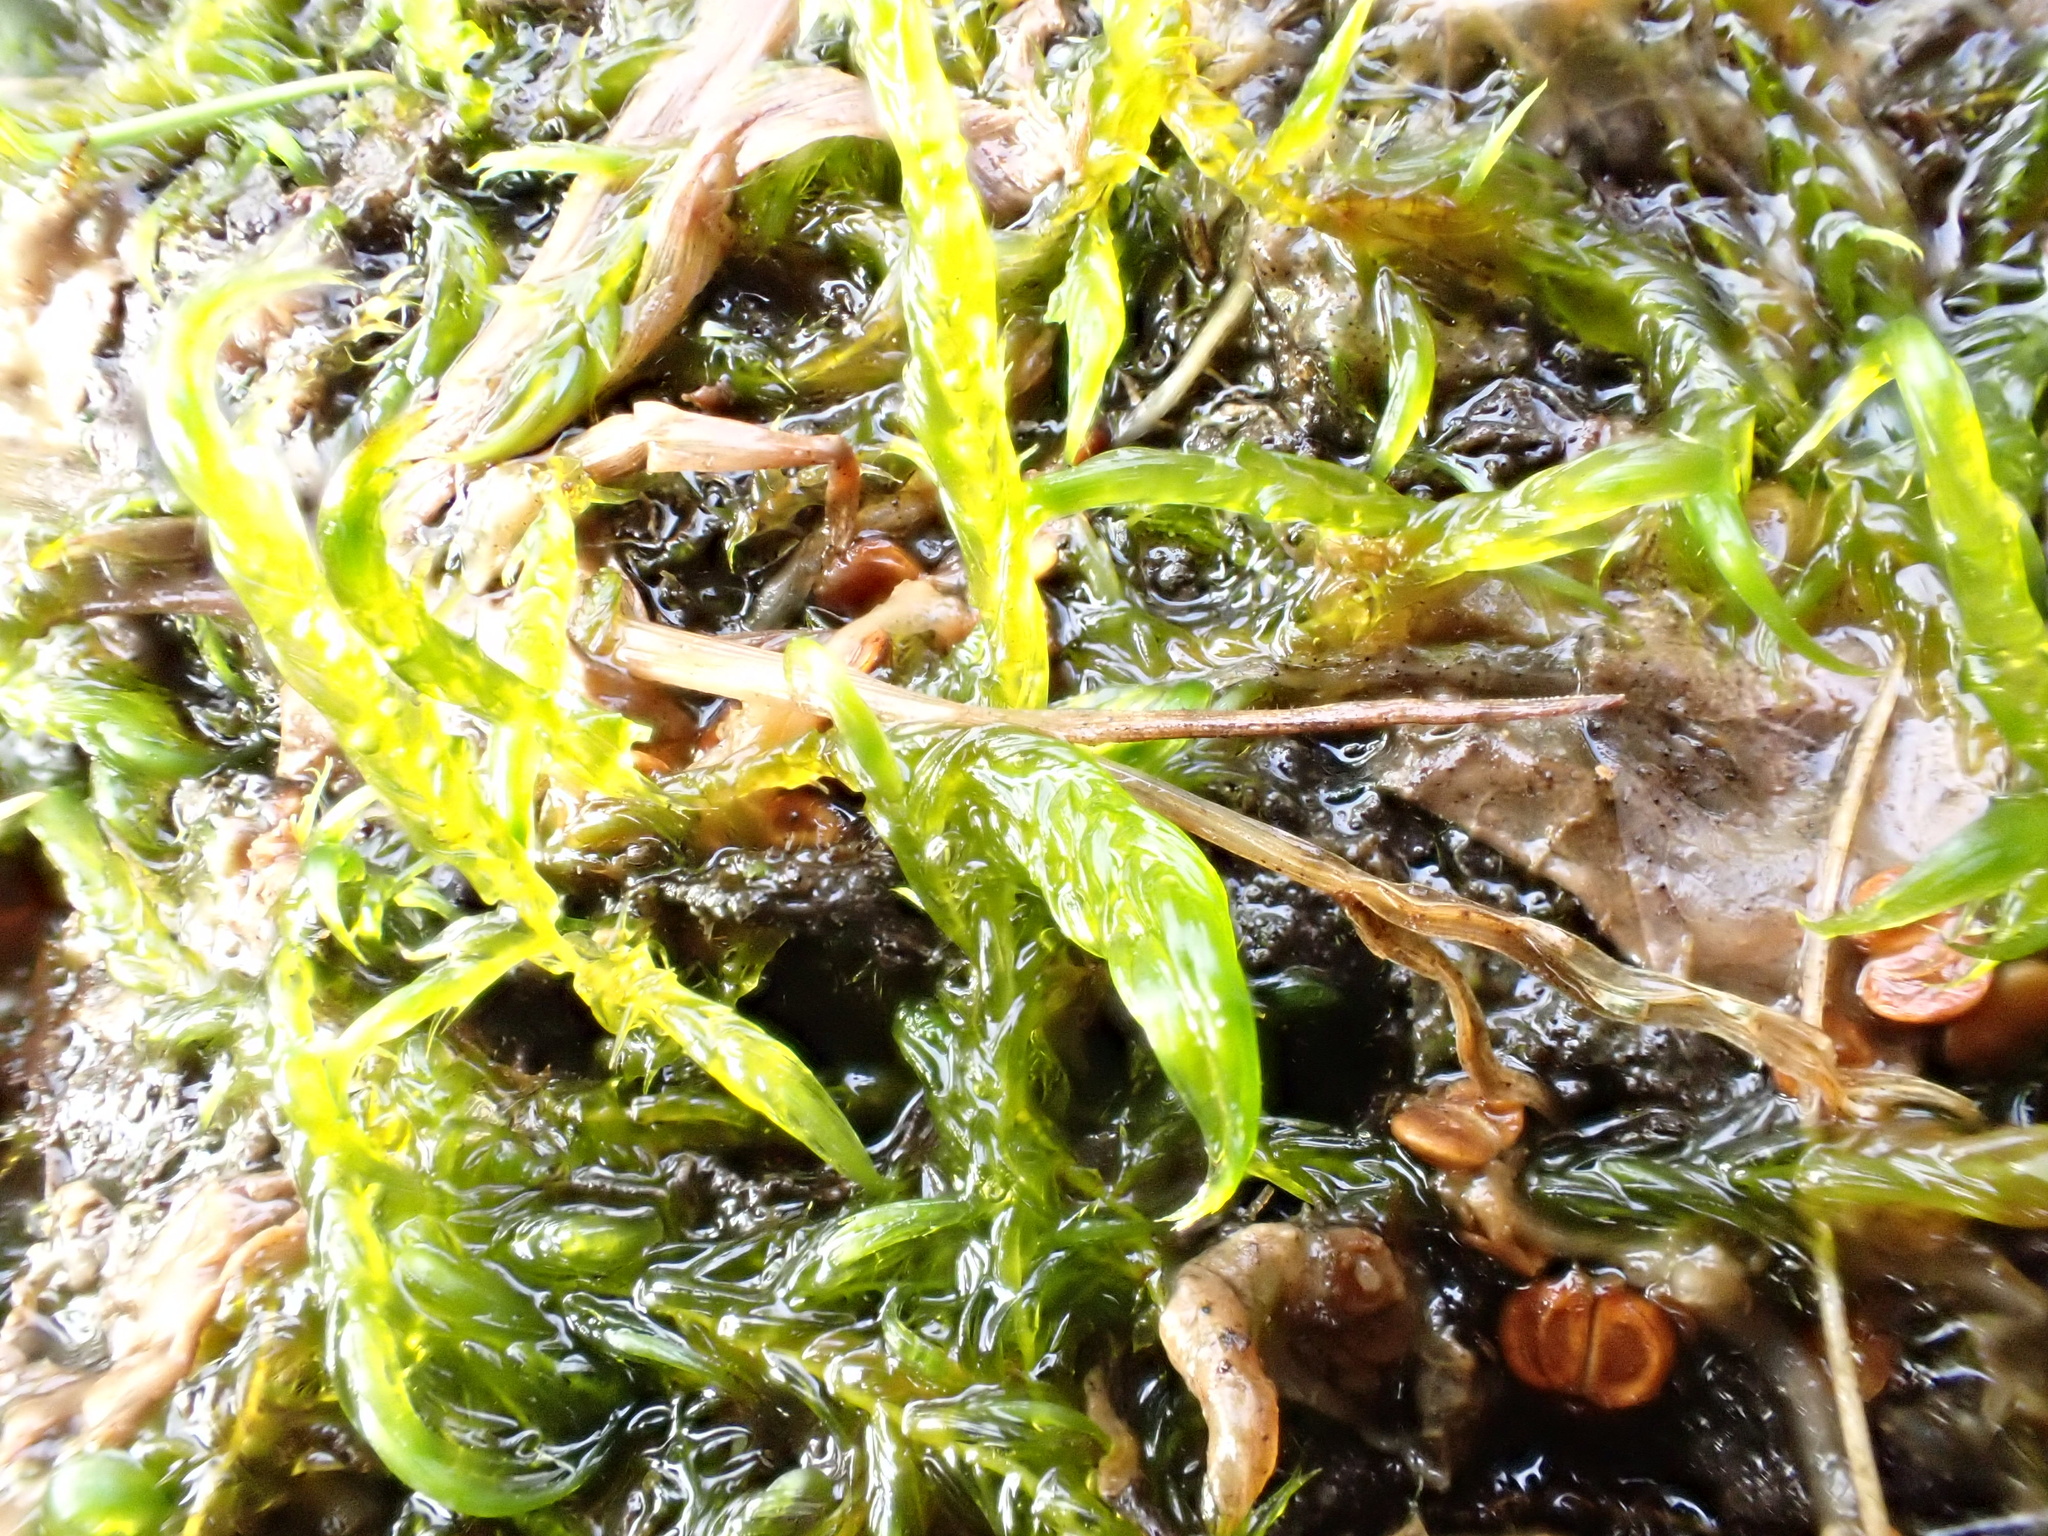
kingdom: Plantae
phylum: Bryophyta
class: Bryopsida
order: Hypnales
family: Calliergonaceae
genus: Warnstorfia
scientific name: Warnstorfia fluitans
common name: Floating hook moss
